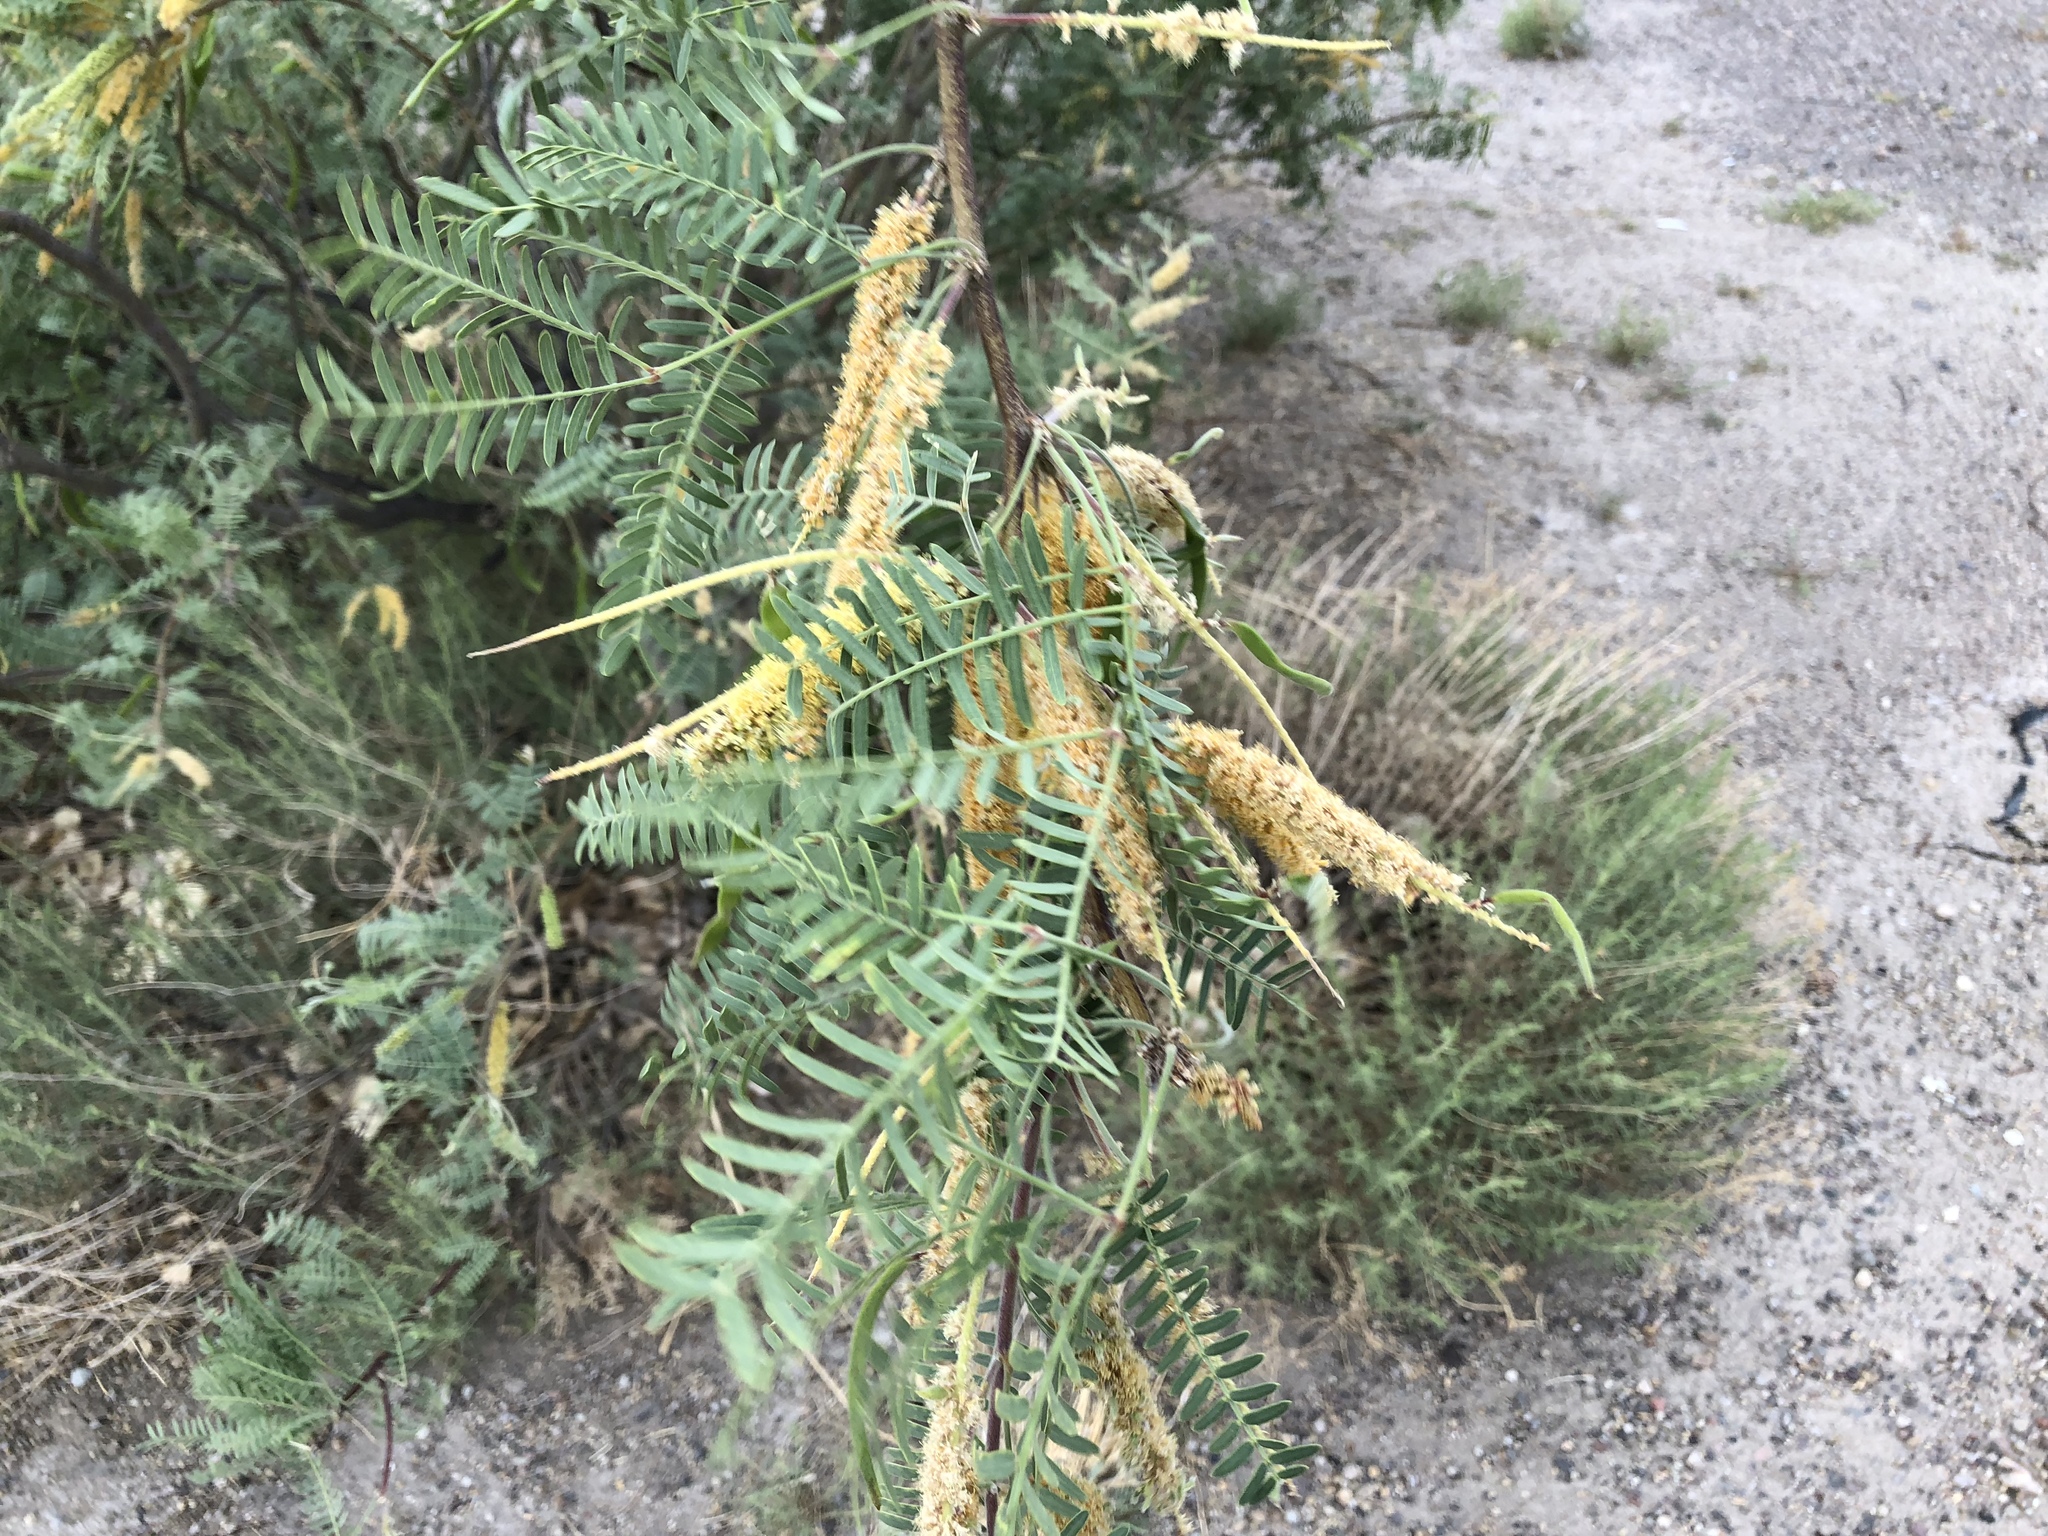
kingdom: Plantae
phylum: Tracheophyta
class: Magnoliopsida
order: Fabales
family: Fabaceae
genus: Prosopis
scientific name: Prosopis glandulosa
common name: Honey mesquite
